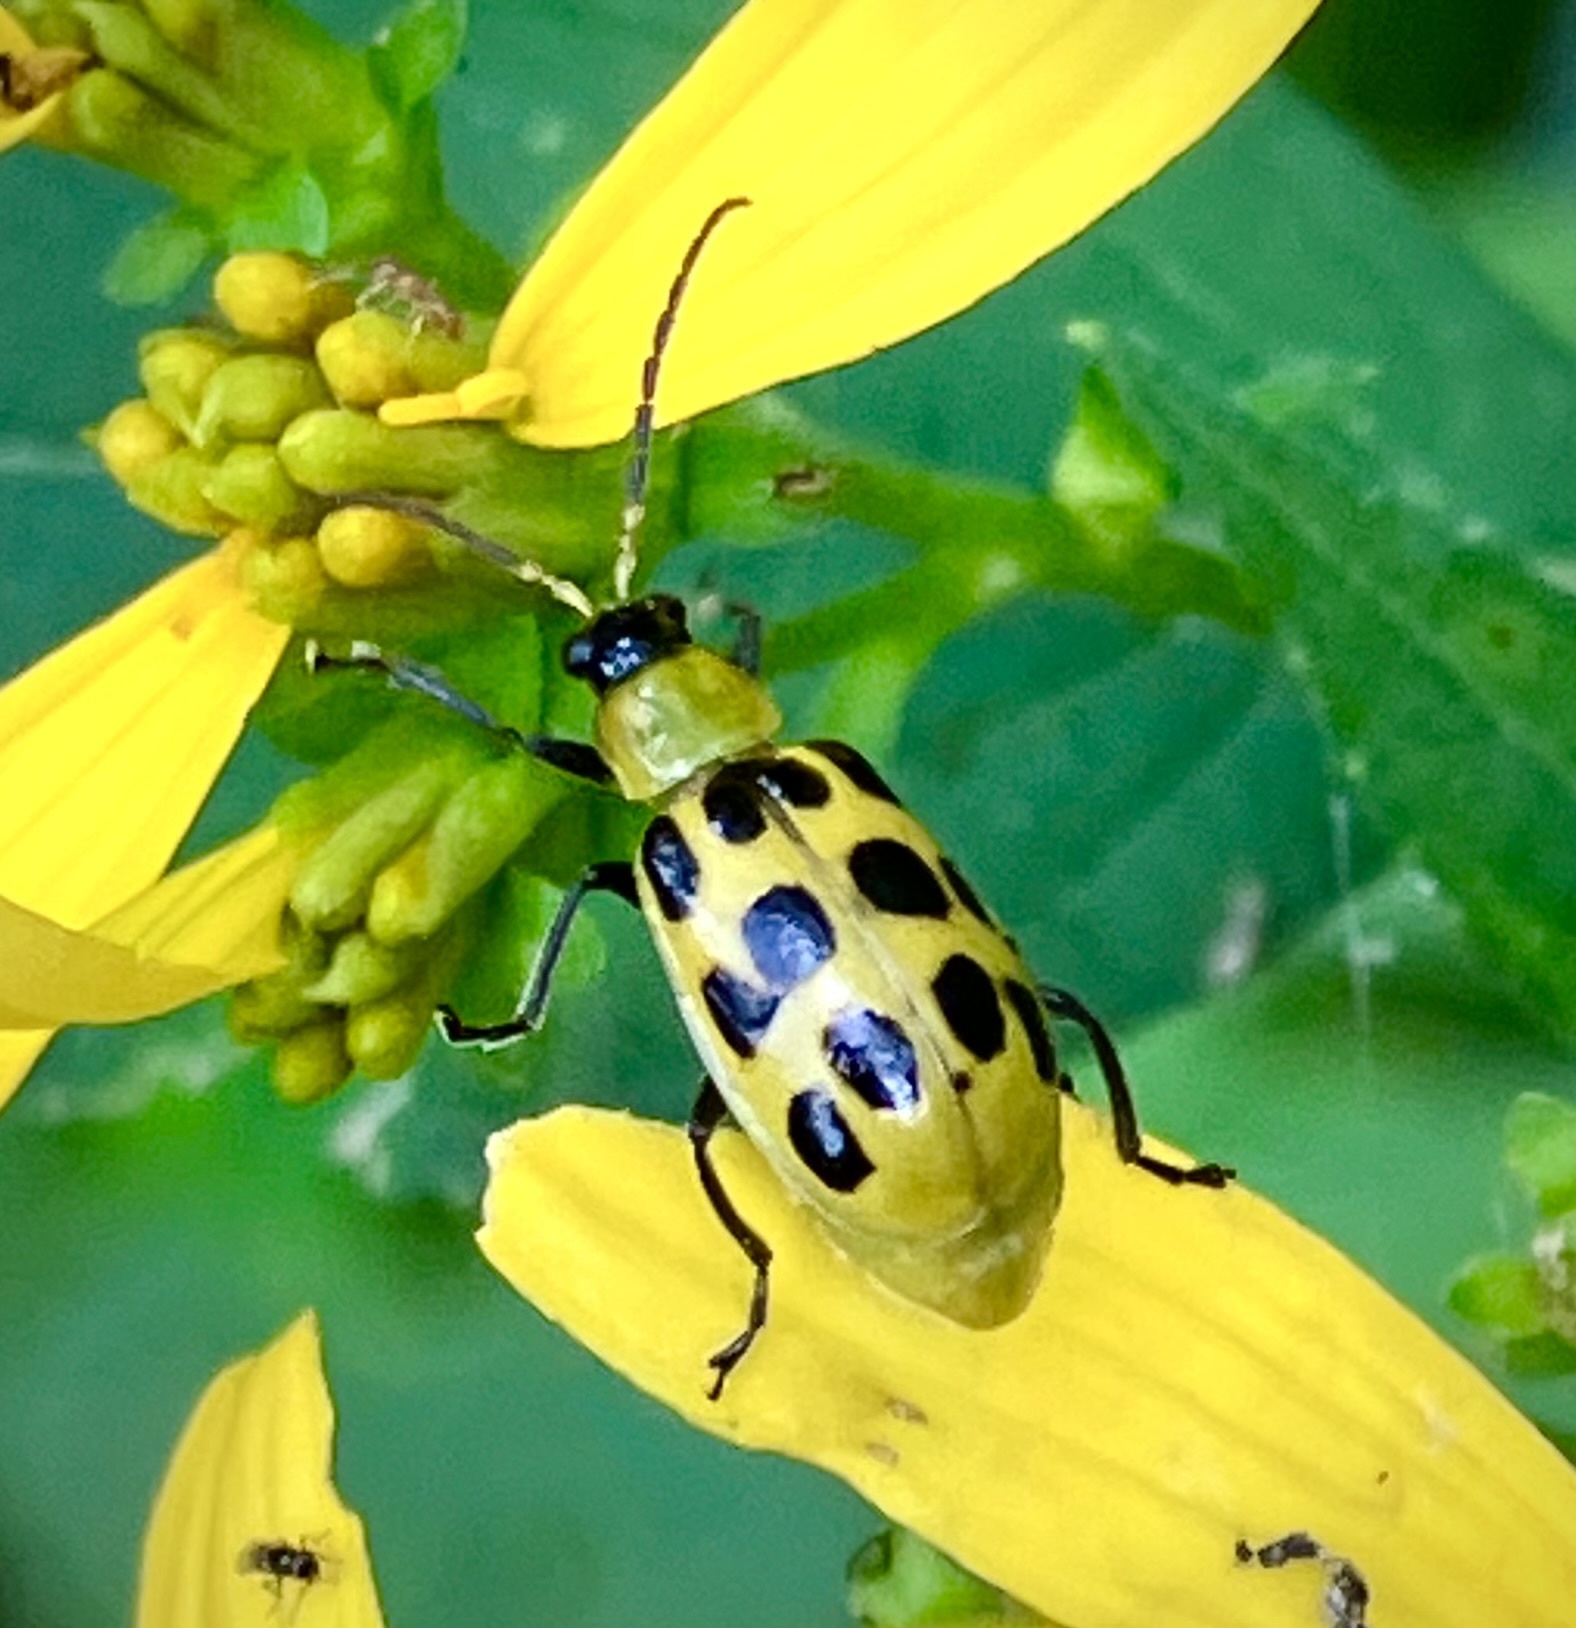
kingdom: Animalia
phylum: Arthropoda
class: Insecta
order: Coleoptera
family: Chrysomelidae
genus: Diabrotica
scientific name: Diabrotica undecimpunctata
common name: Spotted cucumber beetle
